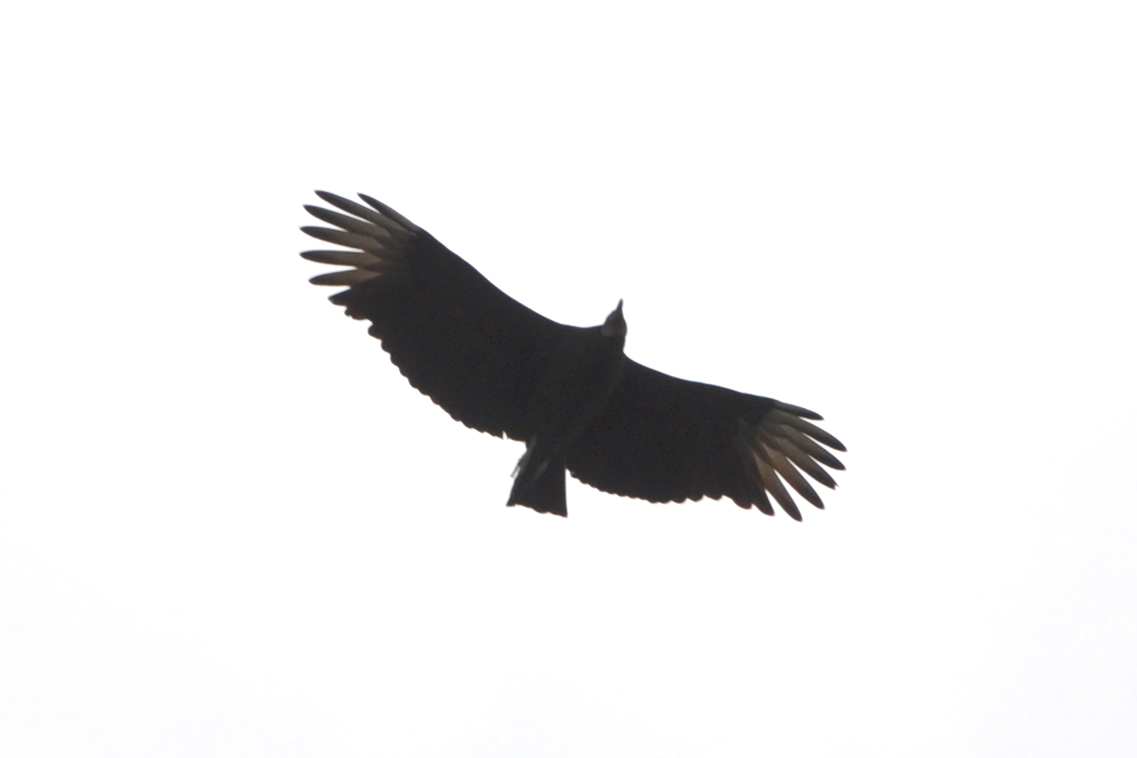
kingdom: Animalia
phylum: Chordata
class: Aves
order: Accipitriformes
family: Cathartidae
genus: Coragyps
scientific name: Coragyps atratus
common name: Black vulture
